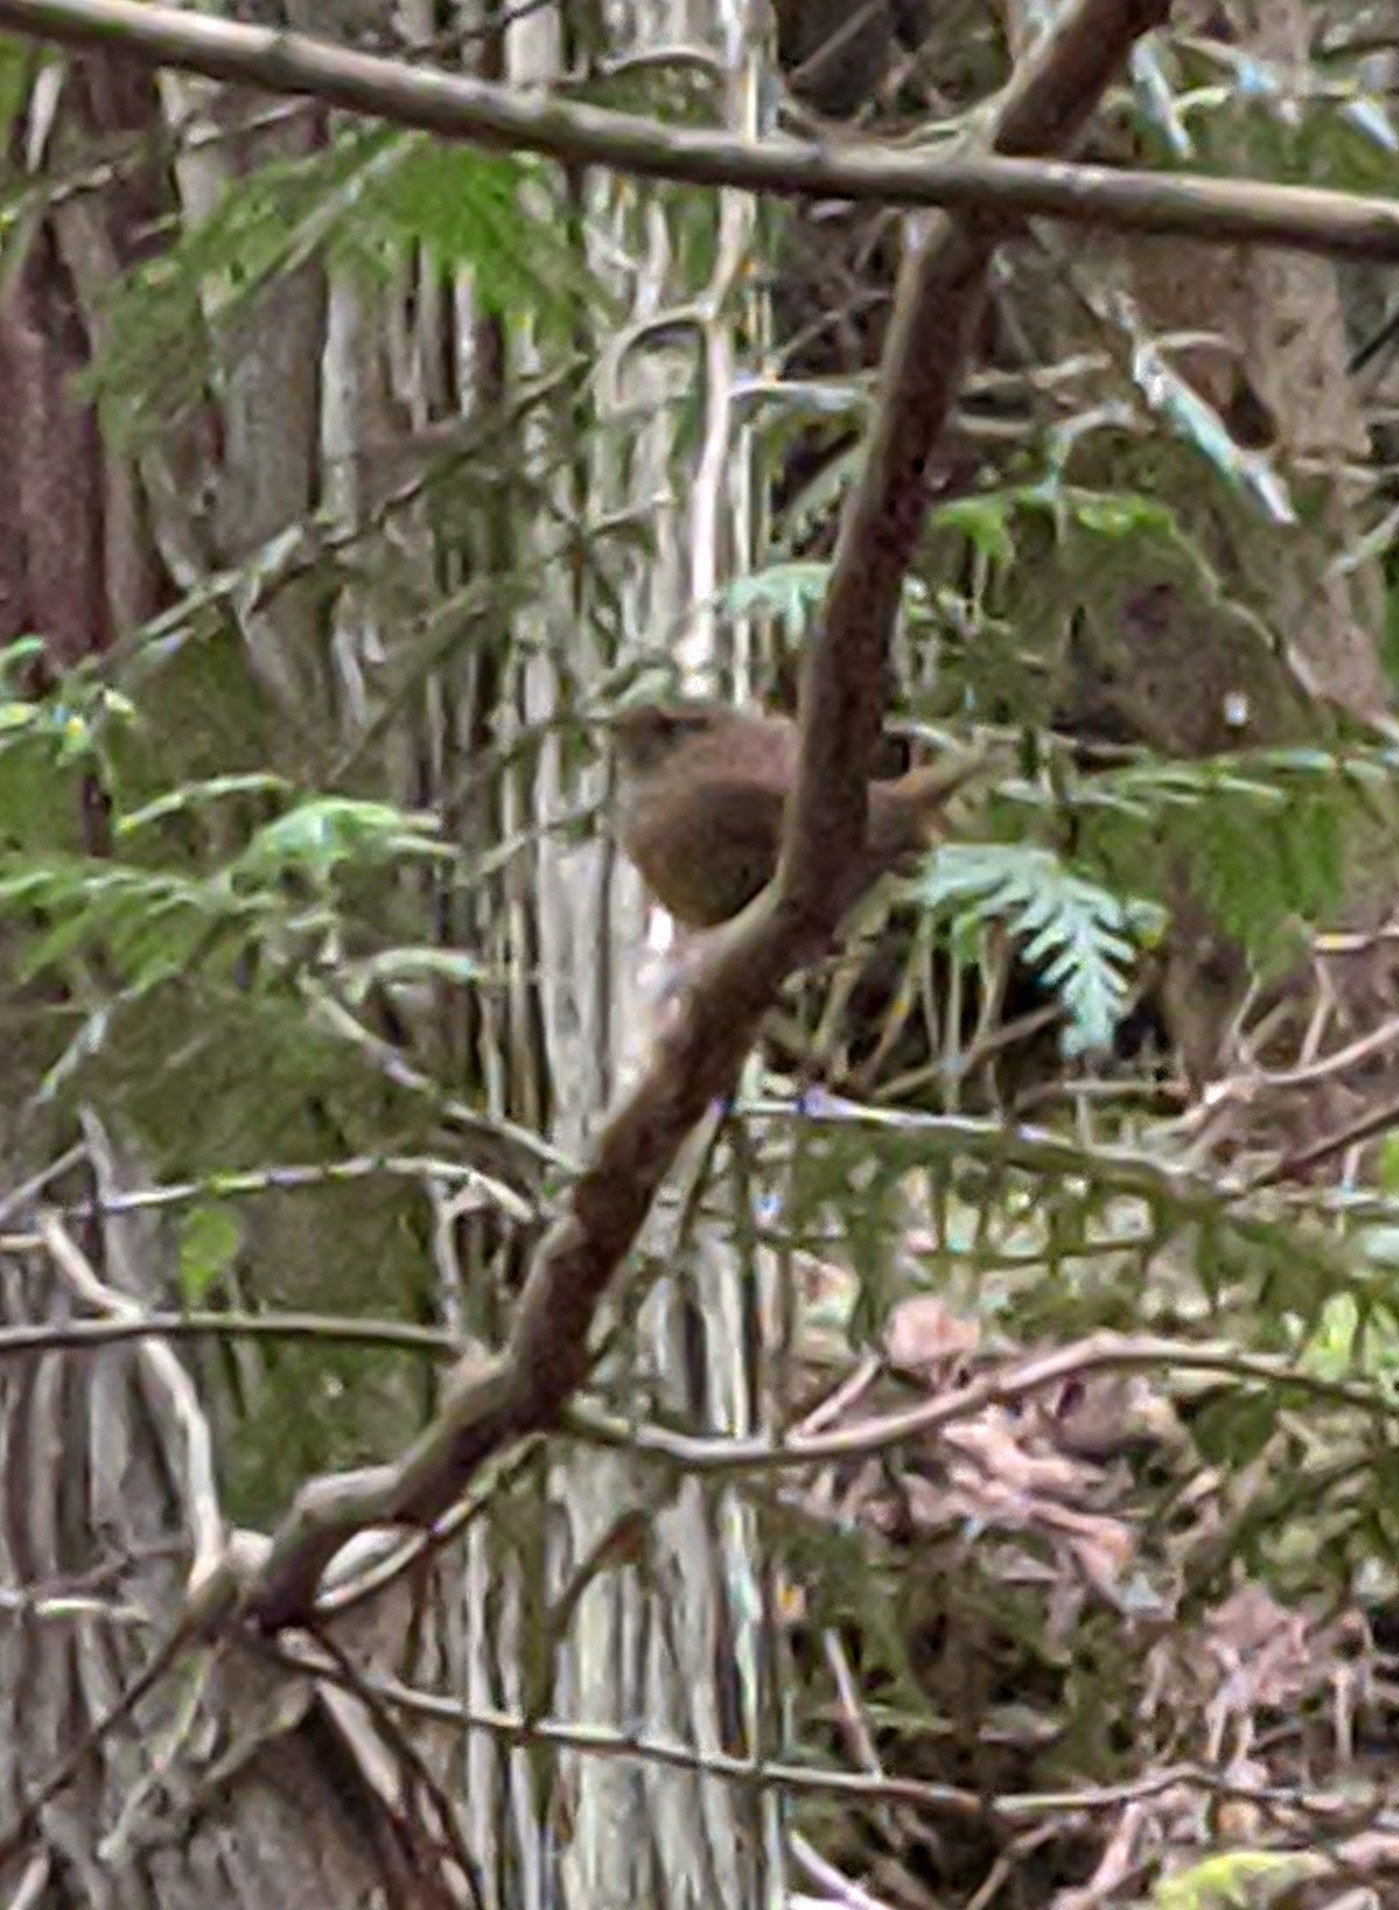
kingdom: Animalia
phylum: Chordata
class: Aves
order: Passeriformes
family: Troglodytidae
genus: Troglodytes
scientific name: Troglodytes pacificus
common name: Pacific wren
